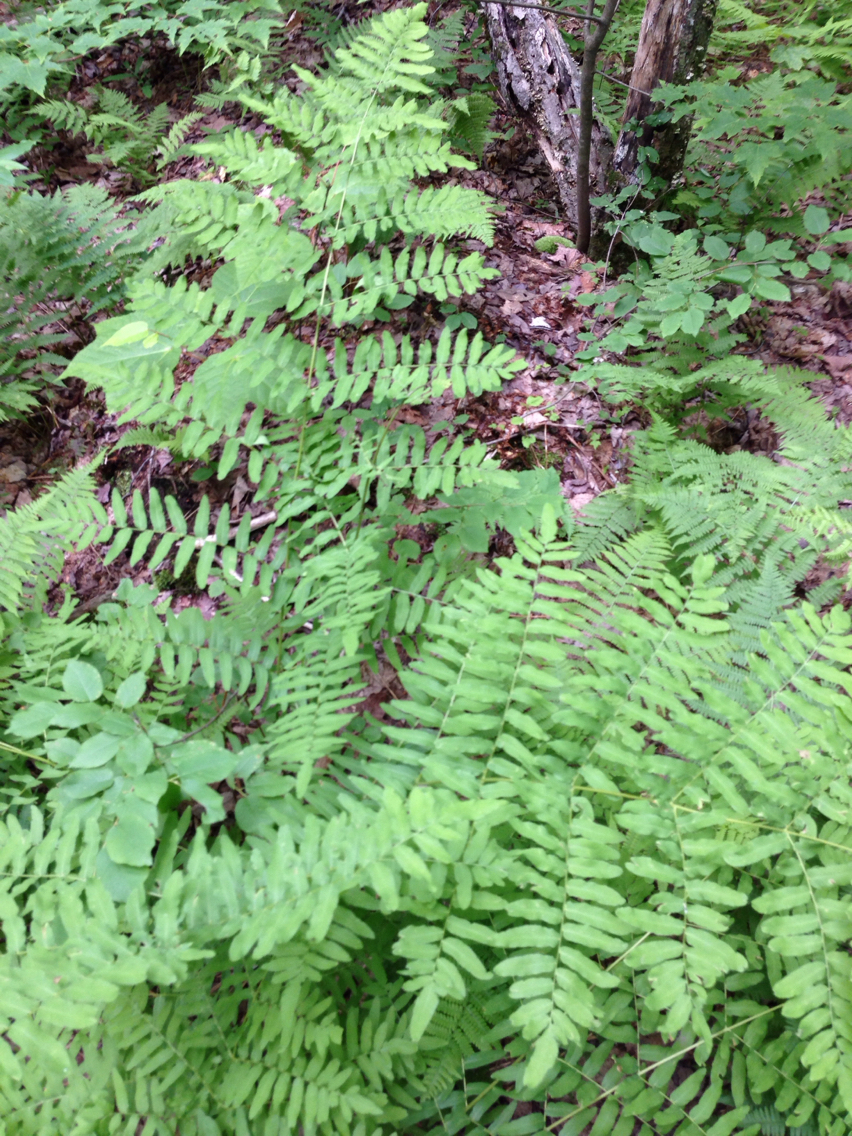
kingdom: Plantae
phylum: Tracheophyta
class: Polypodiopsida
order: Osmundales
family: Osmundaceae
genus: Osmunda
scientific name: Osmunda spectabilis
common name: American royal fern
